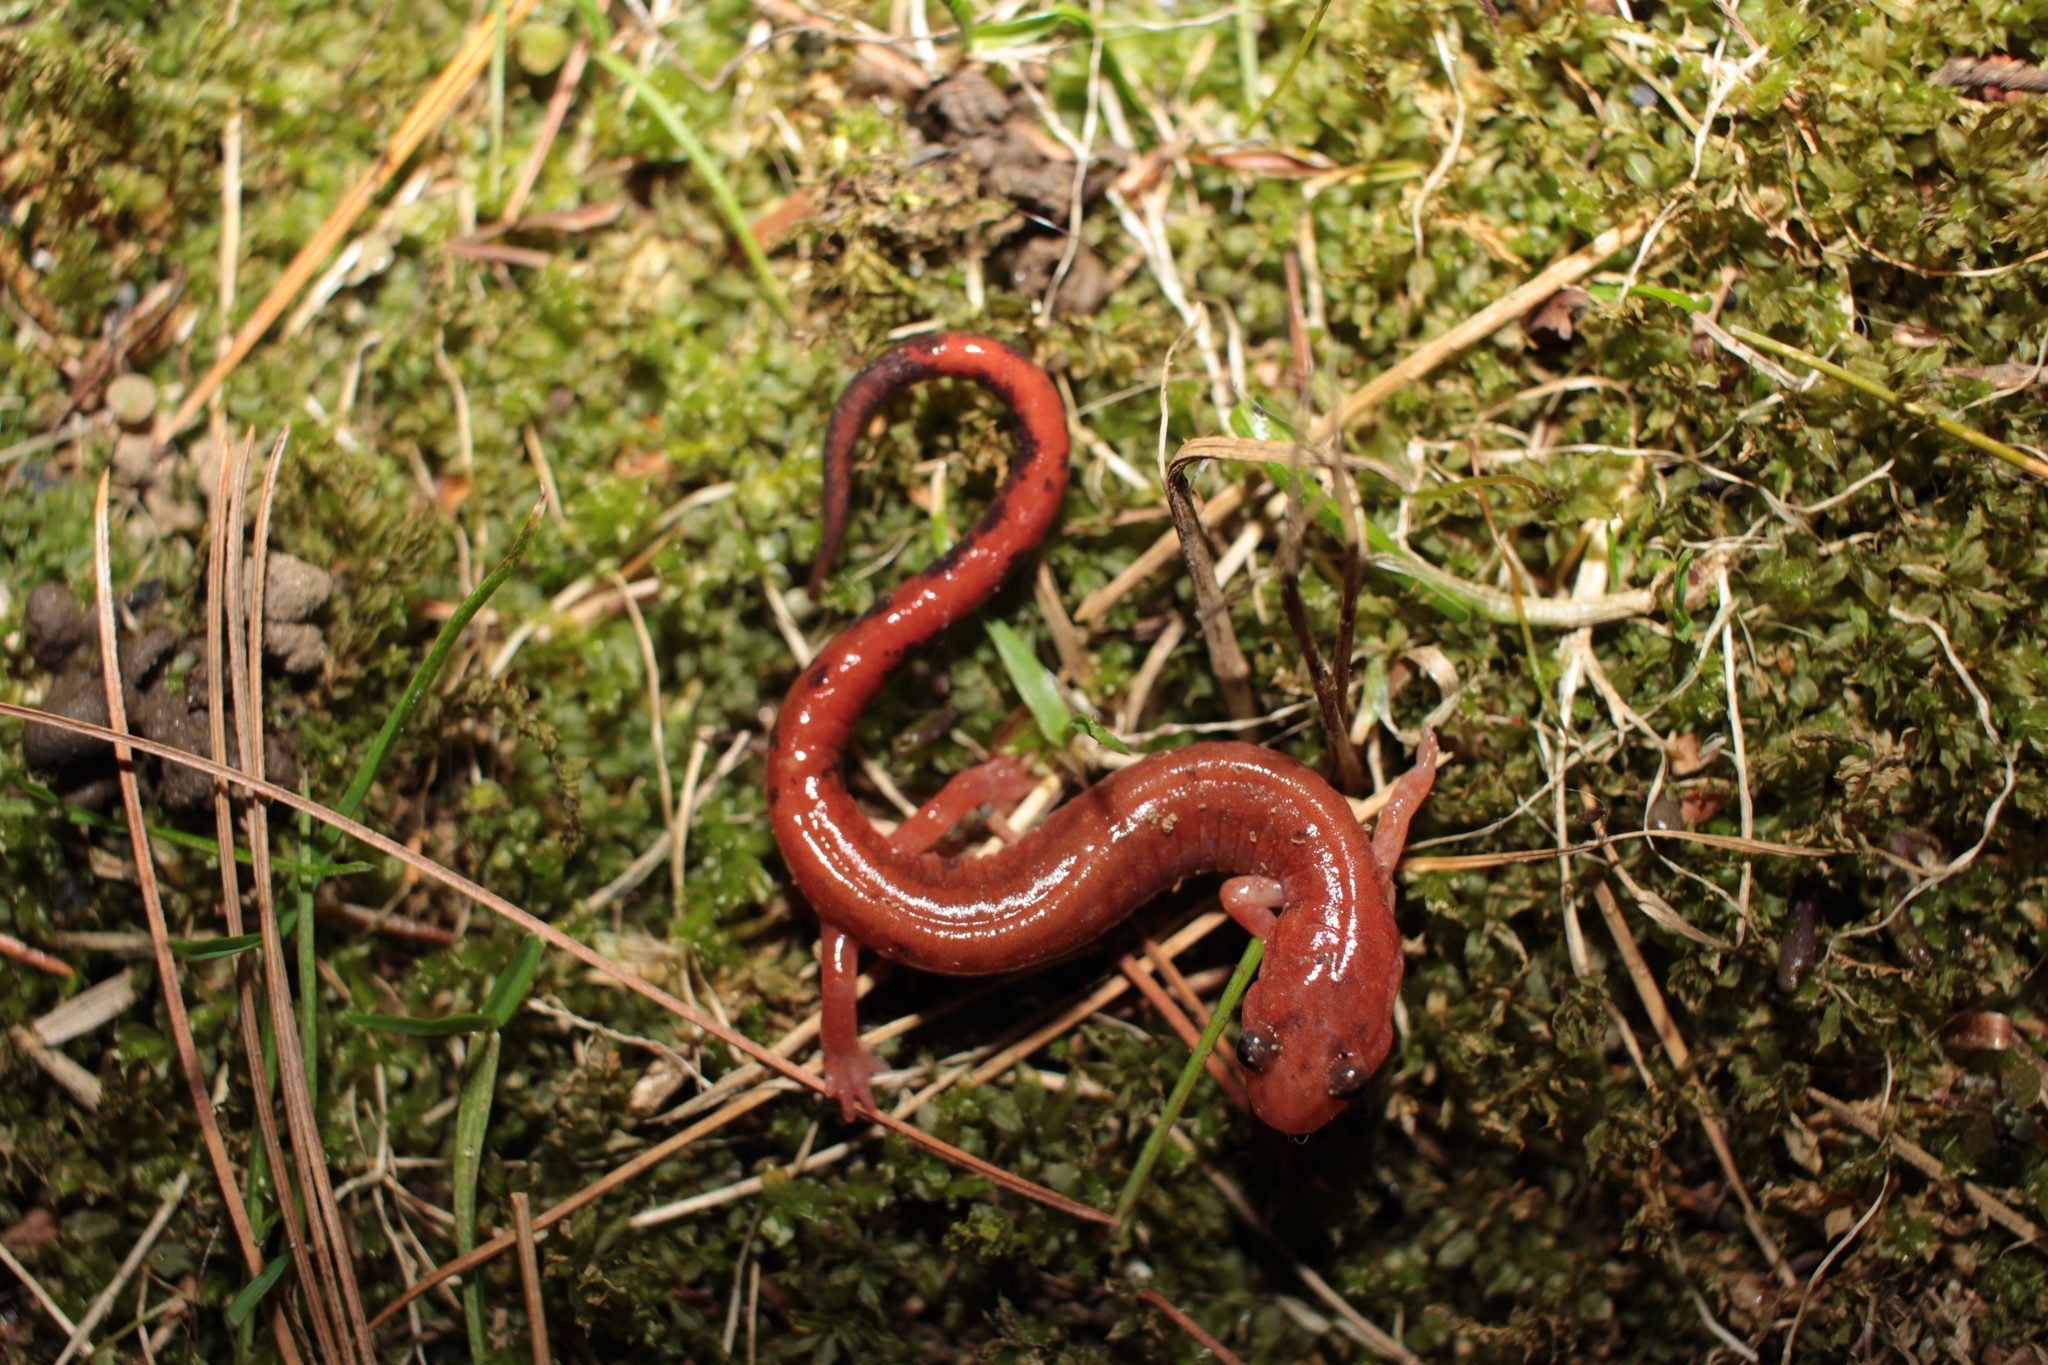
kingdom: Animalia
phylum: Chordata
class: Amphibia
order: Caudata
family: Plethodontidae
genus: Plethodon
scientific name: Plethodon cinereus
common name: Redback salamander
